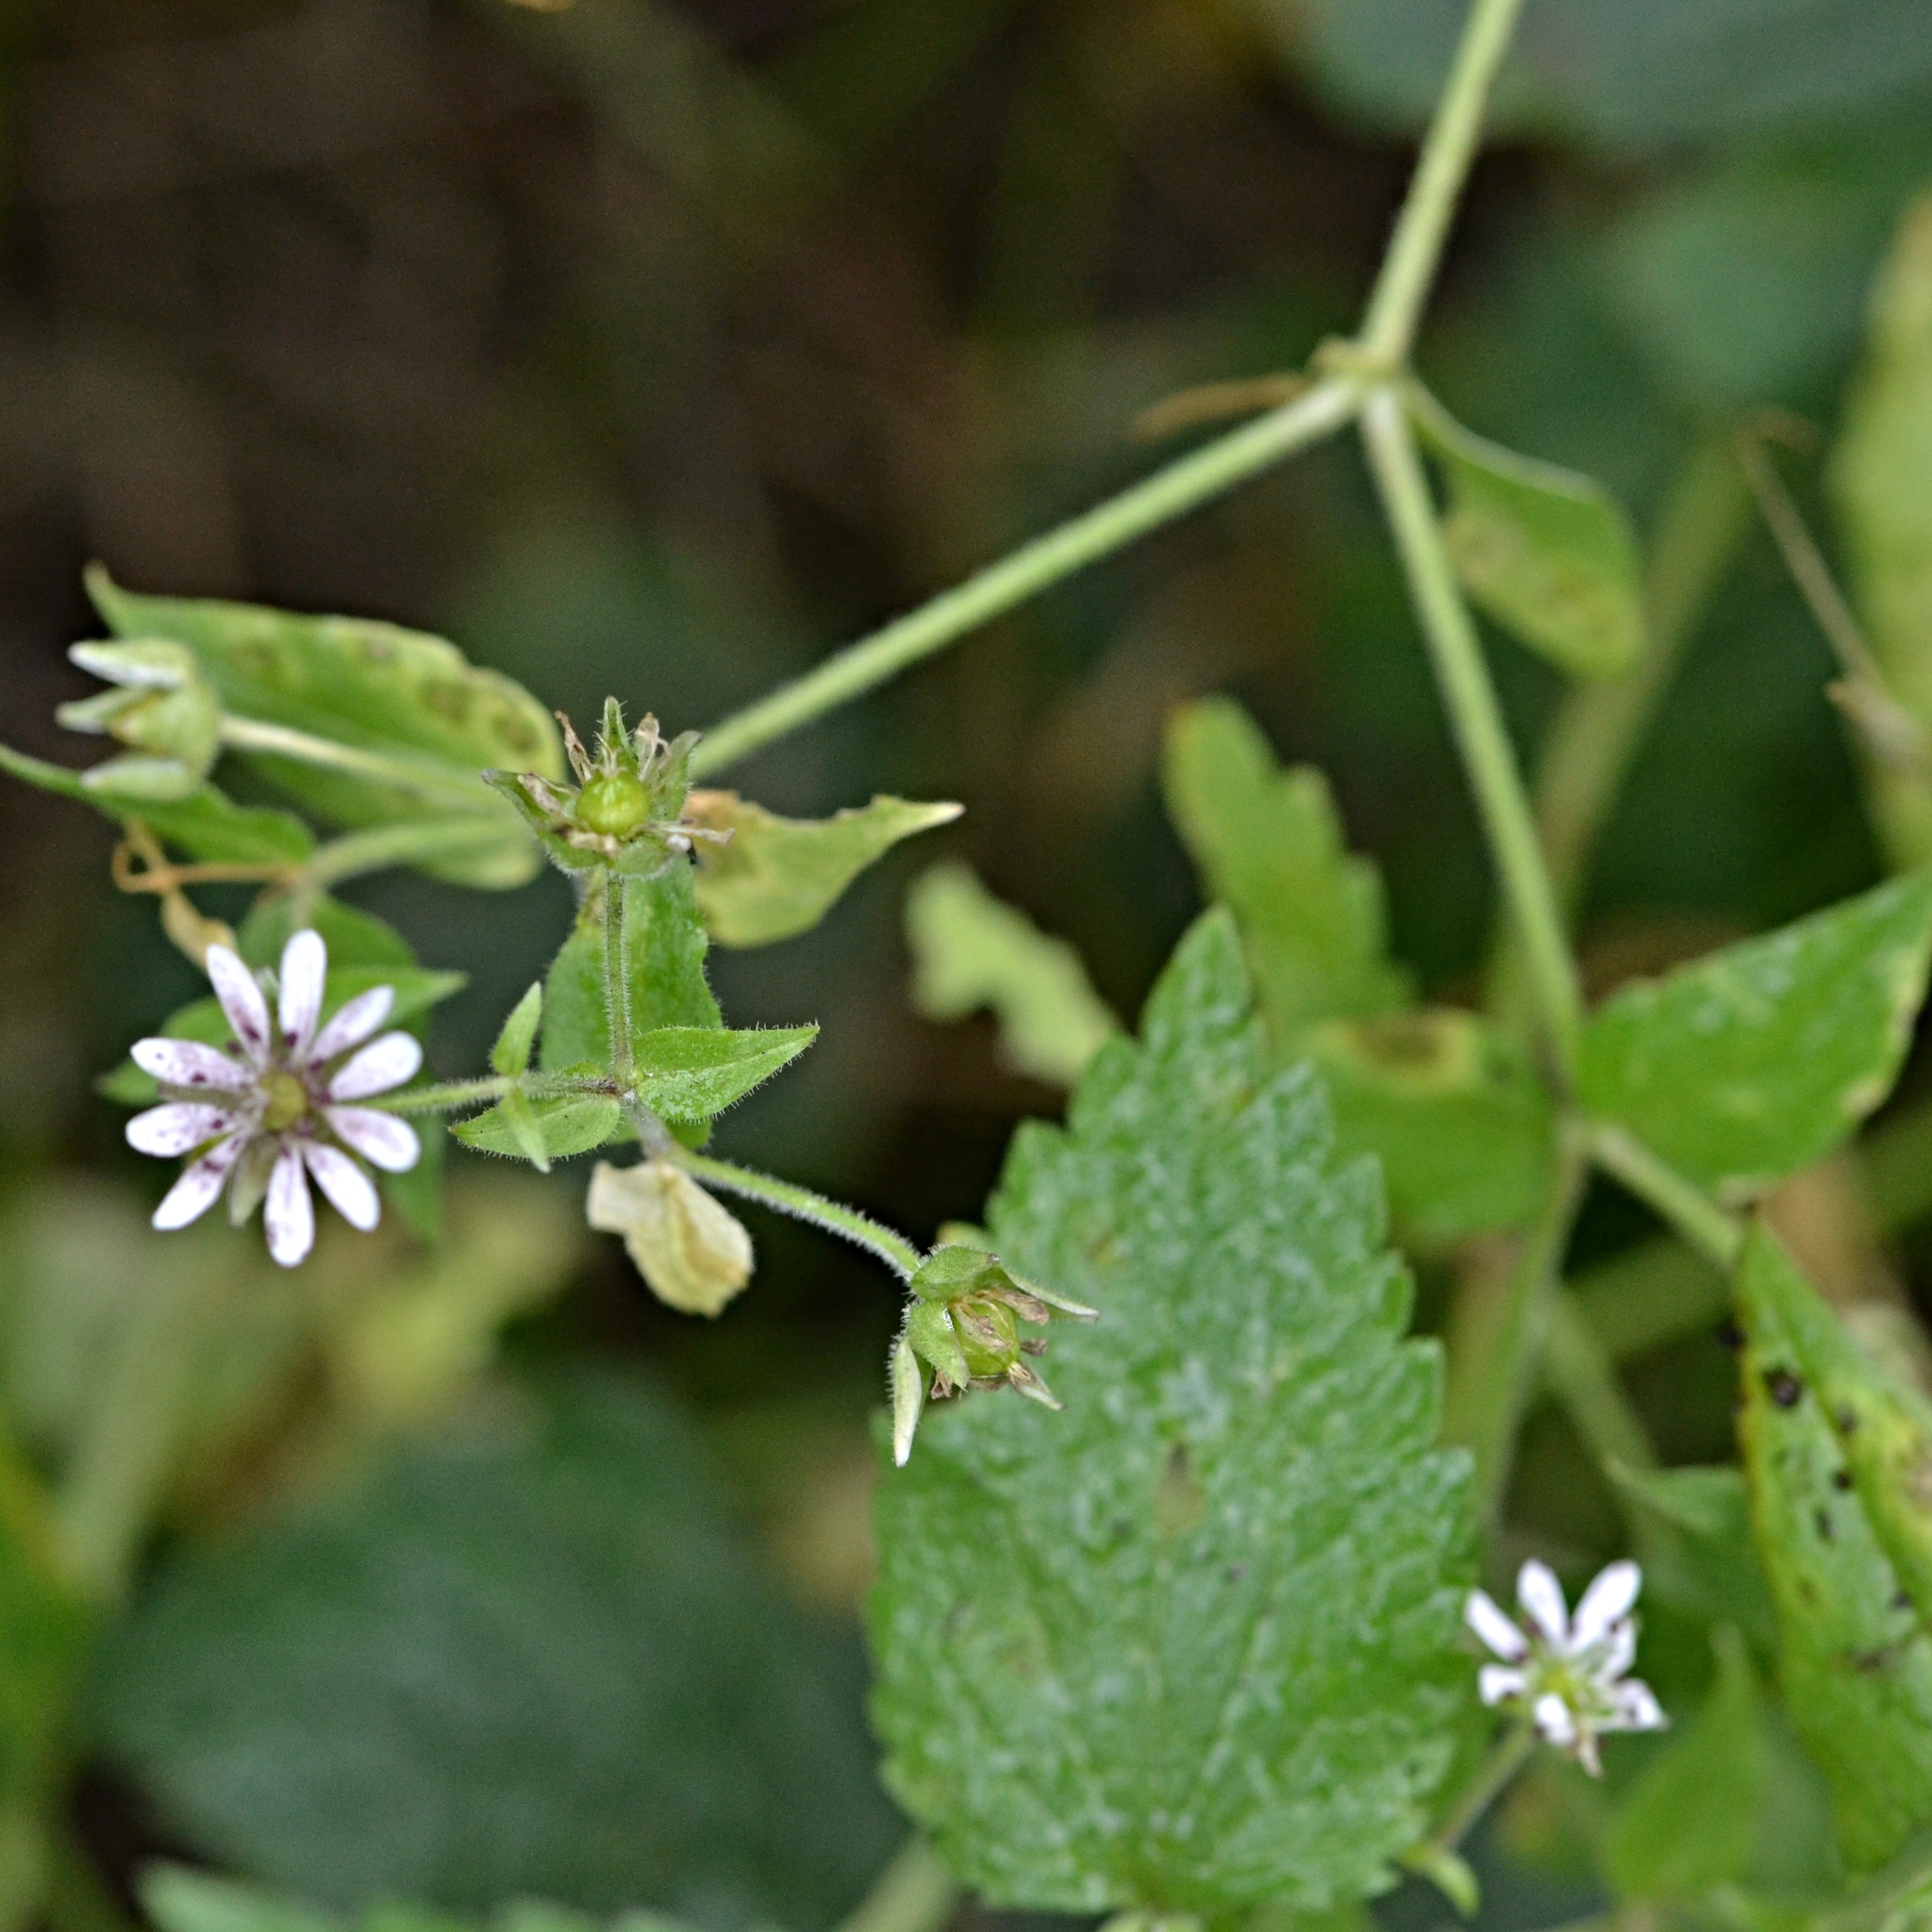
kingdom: Plantae
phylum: Tracheophyta
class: Magnoliopsida
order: Caryophyllales
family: Caryophyllaceae
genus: Stellaria
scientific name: Stellaria aquatica
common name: Water chickweed
